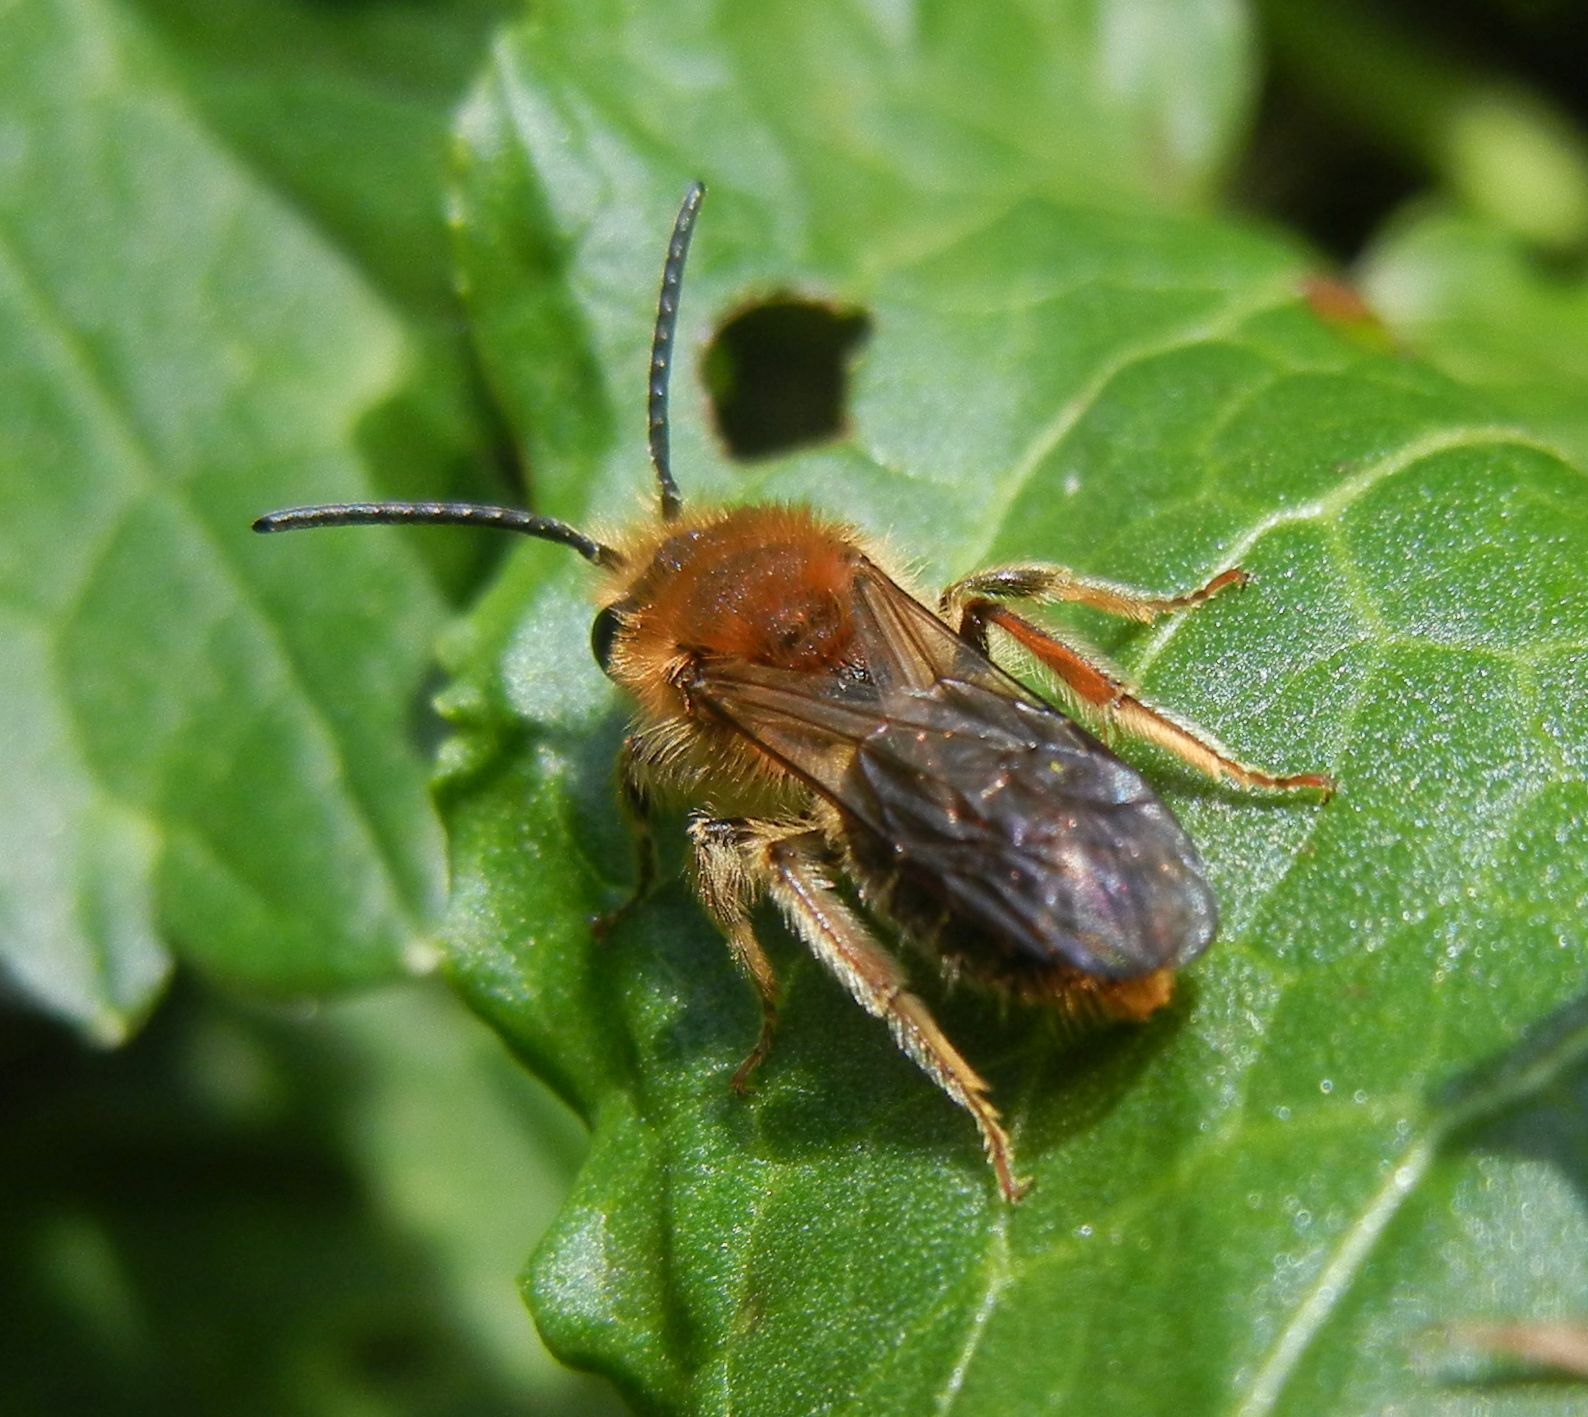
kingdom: Animalia
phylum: Arthropoda
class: Insecta
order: Hymenoptera
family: Andrenidae
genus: Andrena
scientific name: Andrena haemorrhoa
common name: Early mining bee
